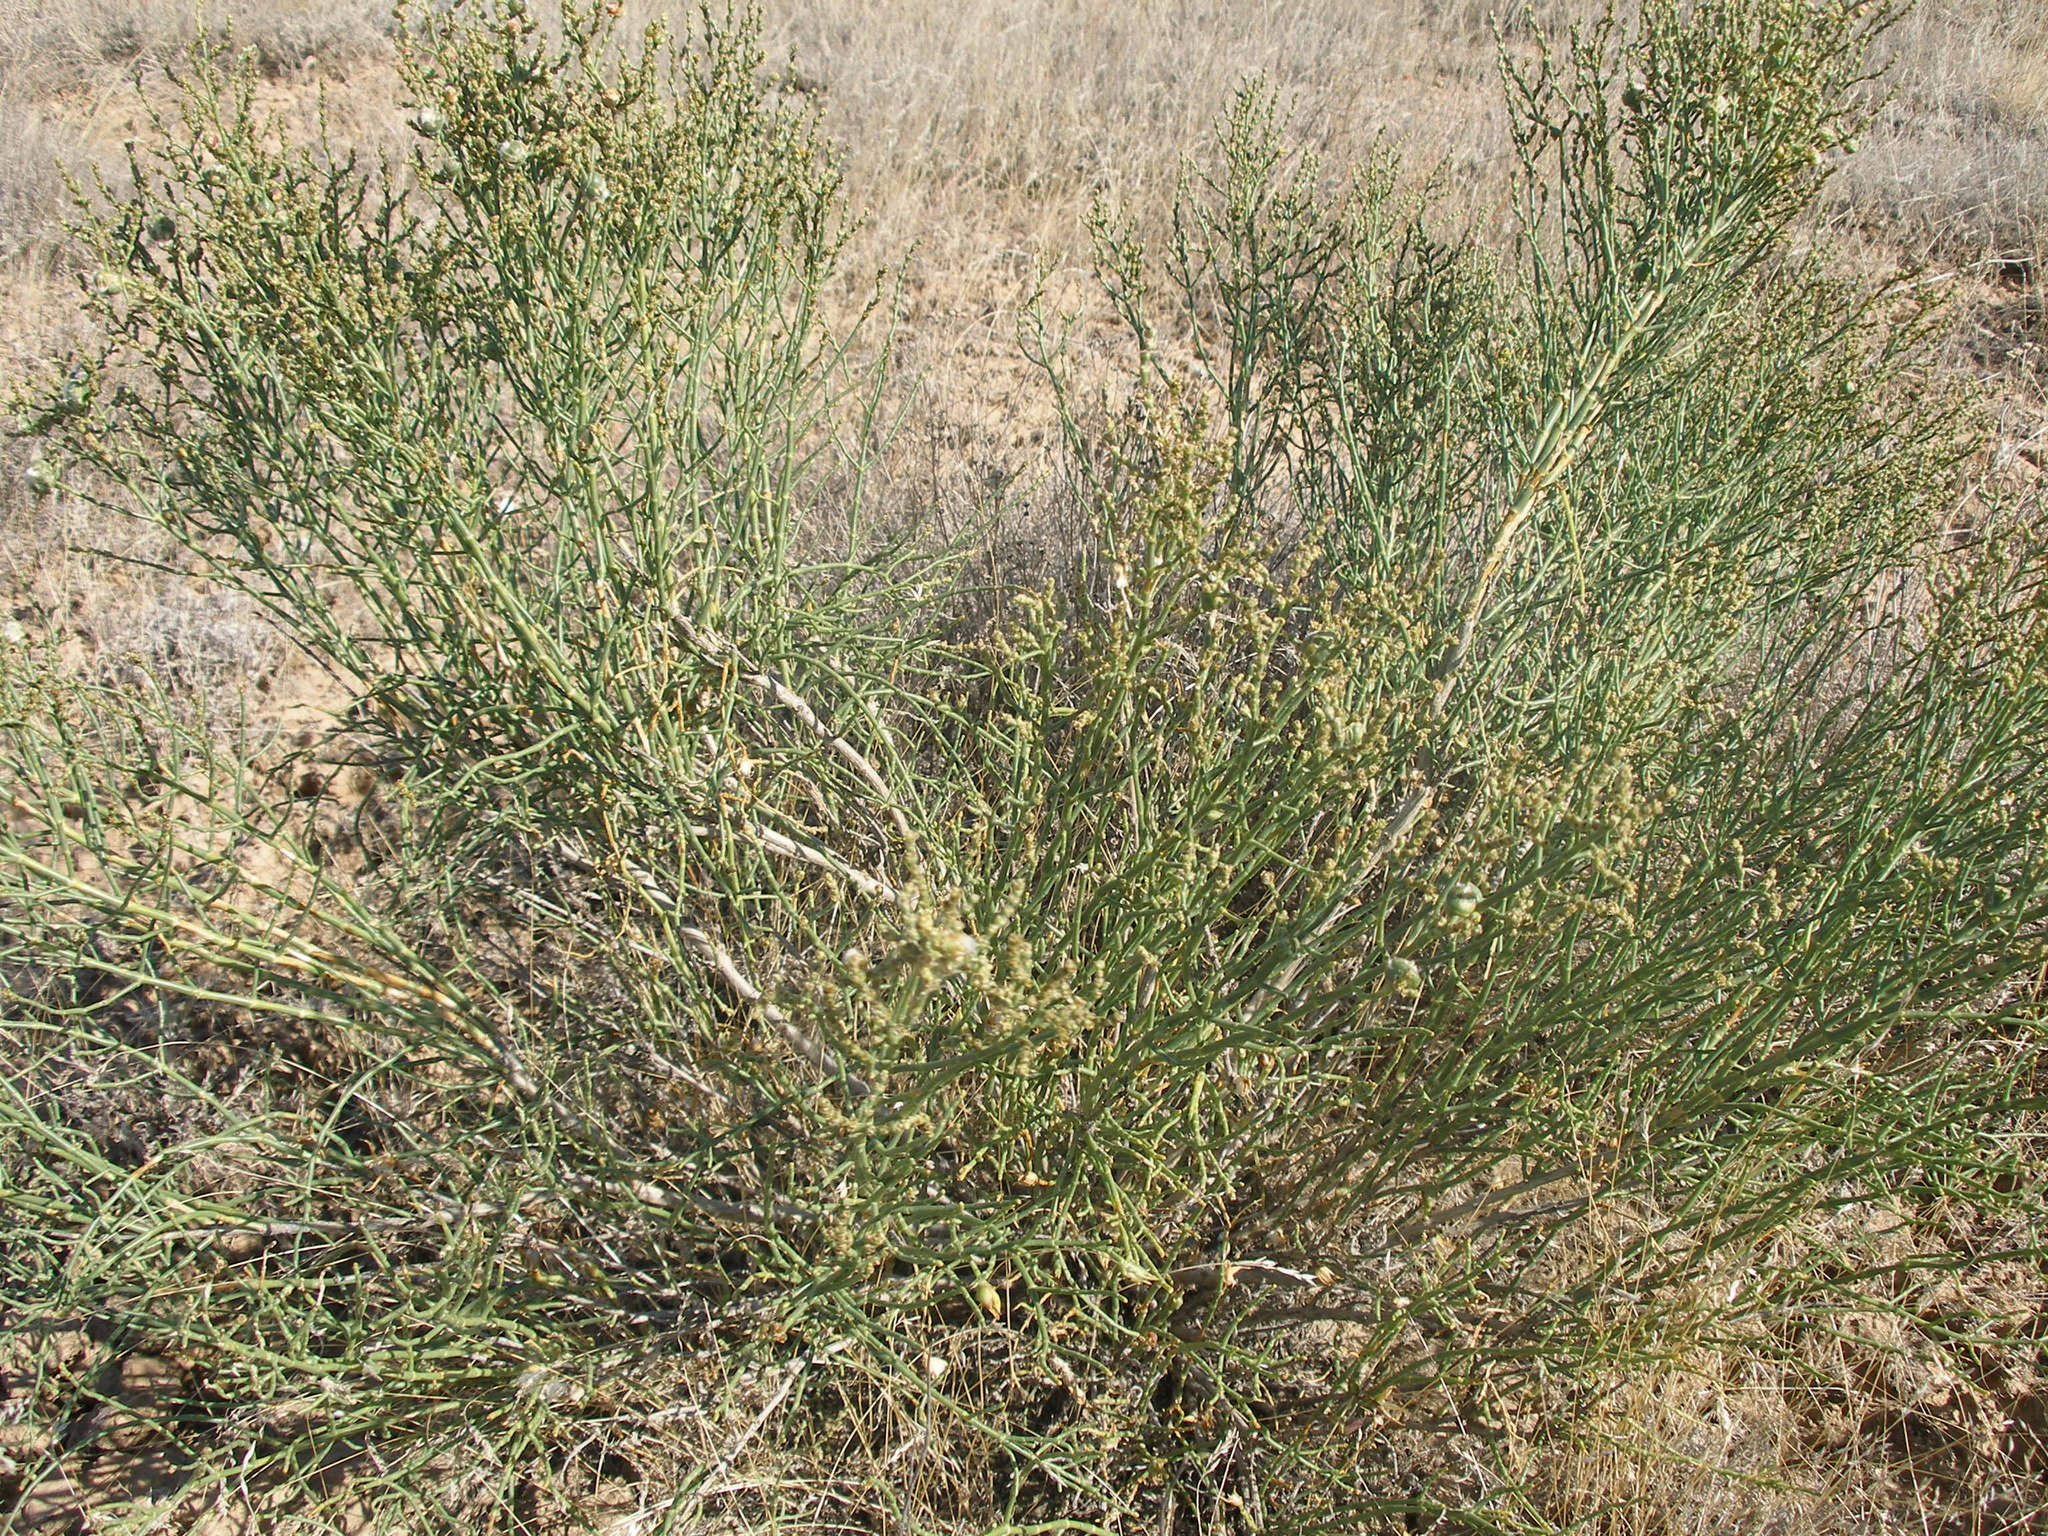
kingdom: Plantae
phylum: Tracheophyta
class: Magnoliopsida
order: Caryophyllales
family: Amaranthaceae
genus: Anabasis
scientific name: Anabasis aphylla
